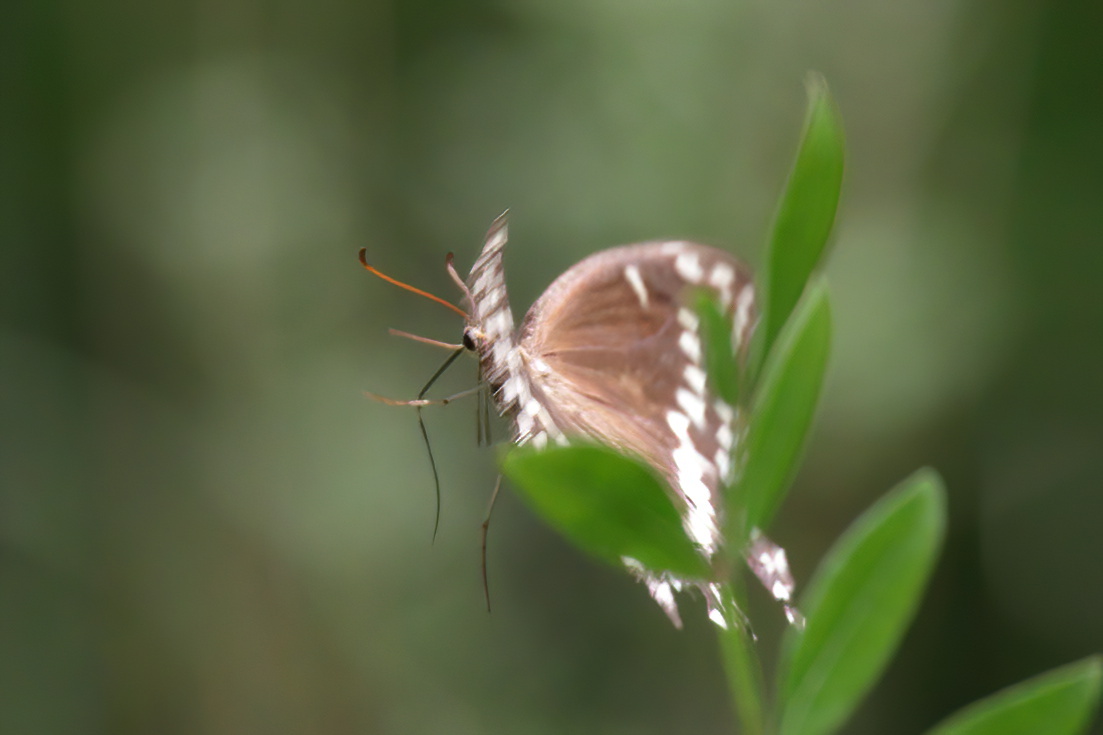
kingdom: Animalia
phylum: Arthropoda
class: Insecta
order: Lepidoptera
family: Papilionidae
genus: Papilio
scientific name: Papilio palamedes
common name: Palamedes swallowtail
